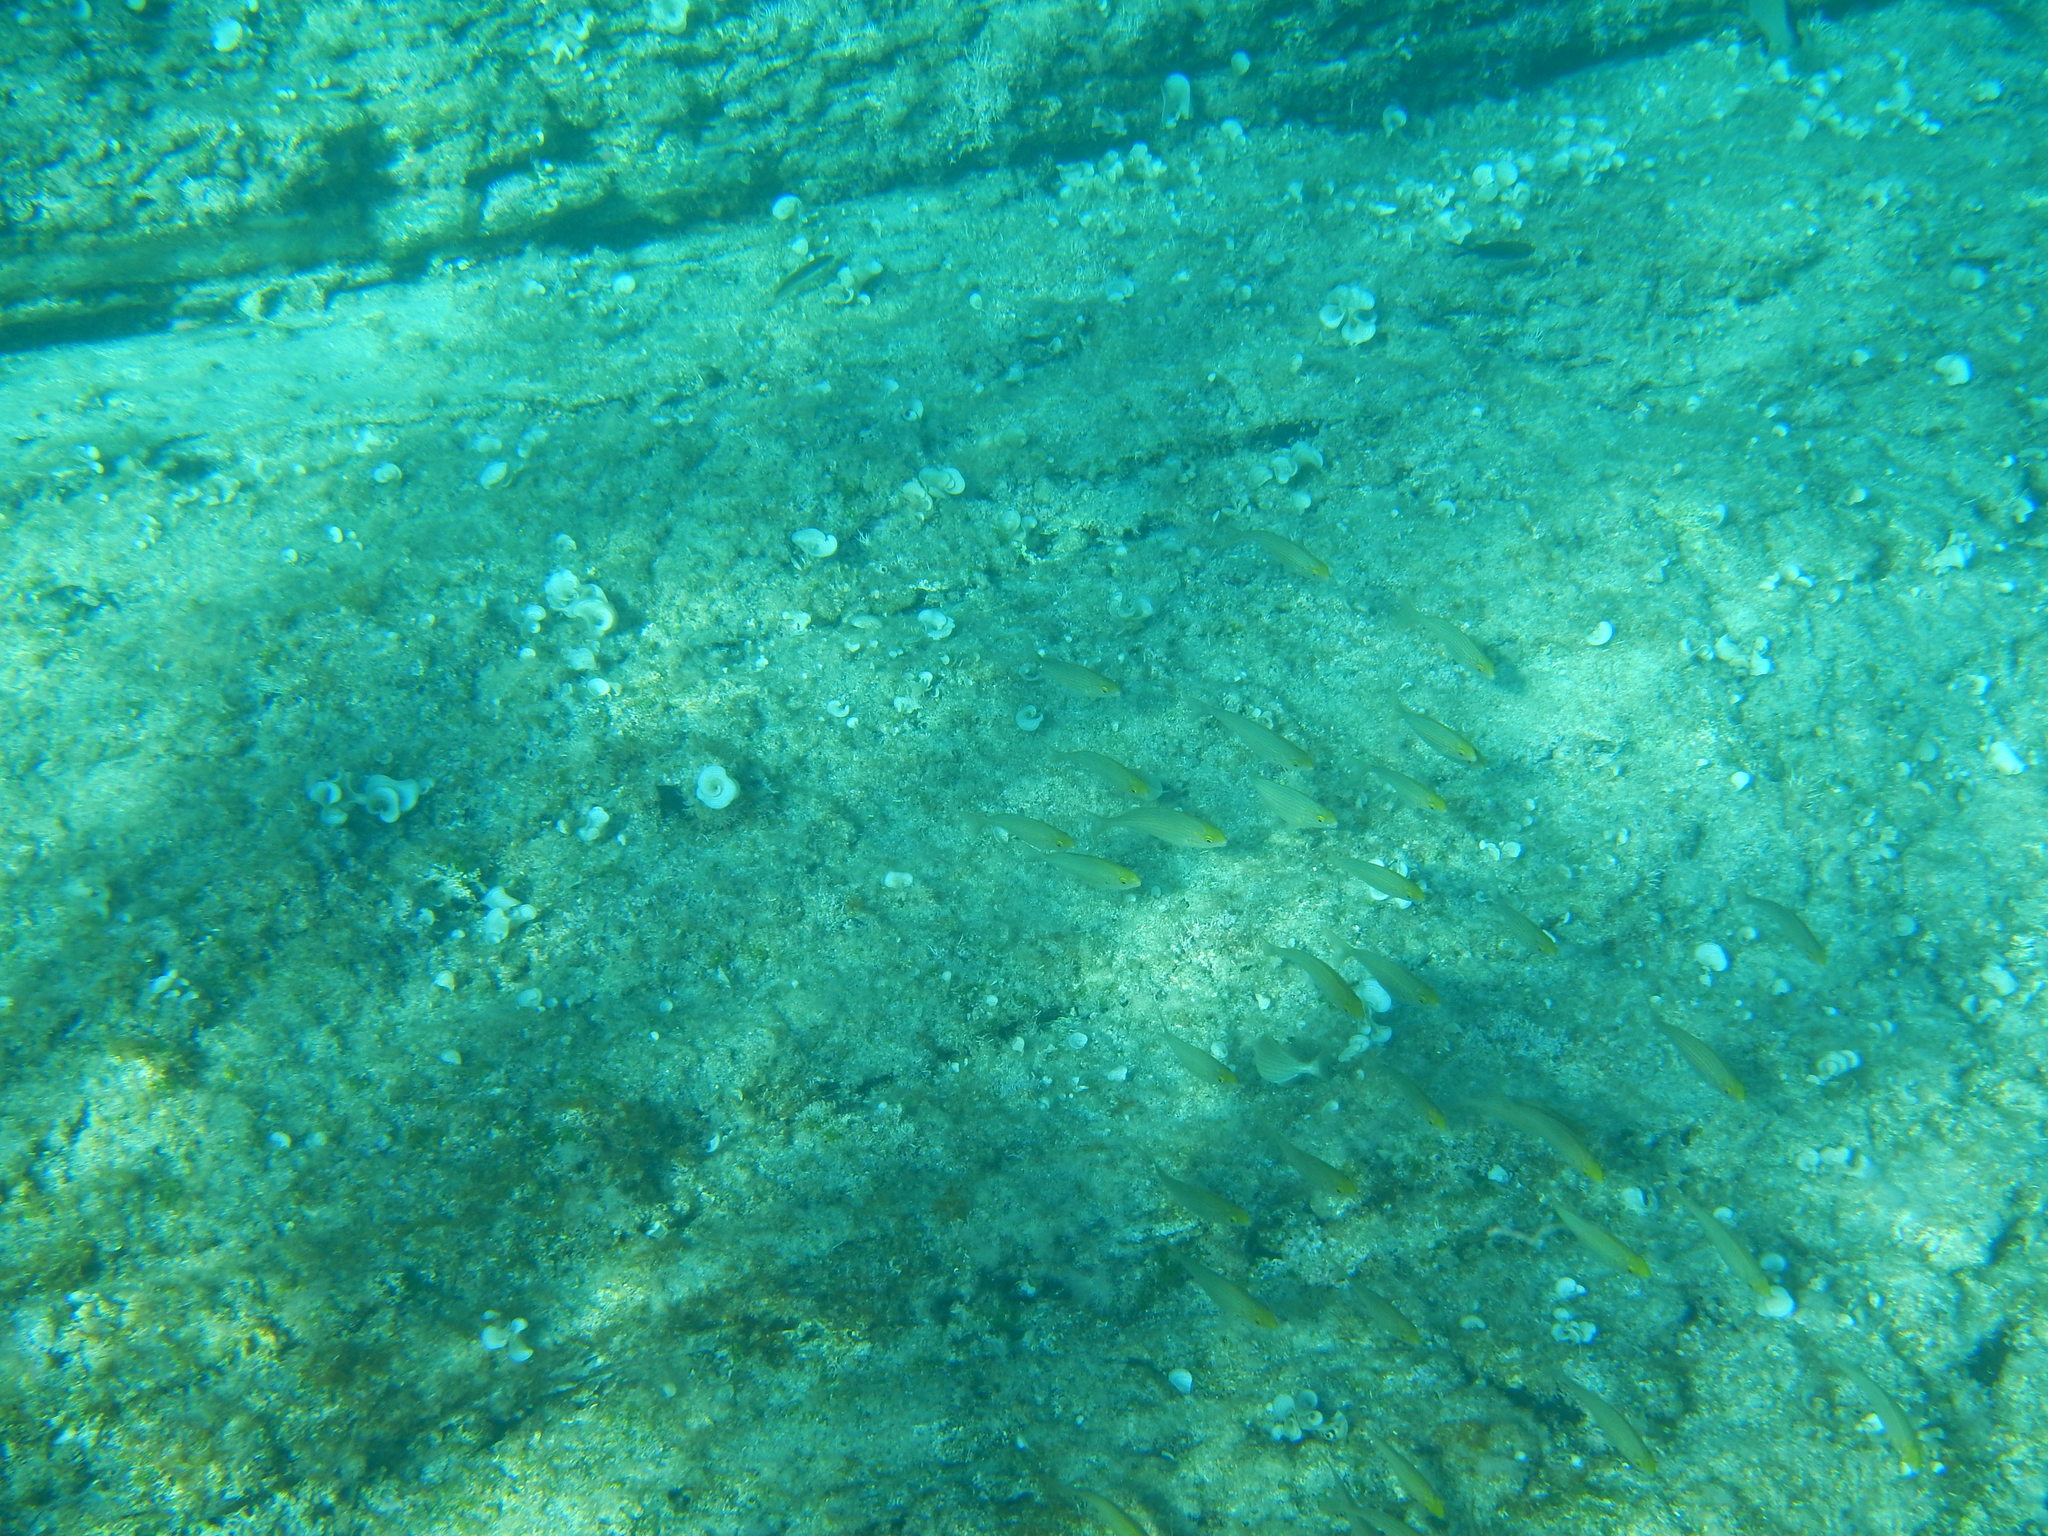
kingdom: Animalia
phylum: Chordata
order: Perciformes
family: Sparidae
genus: Sarpa
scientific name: Sarpa salpa
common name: Salema
